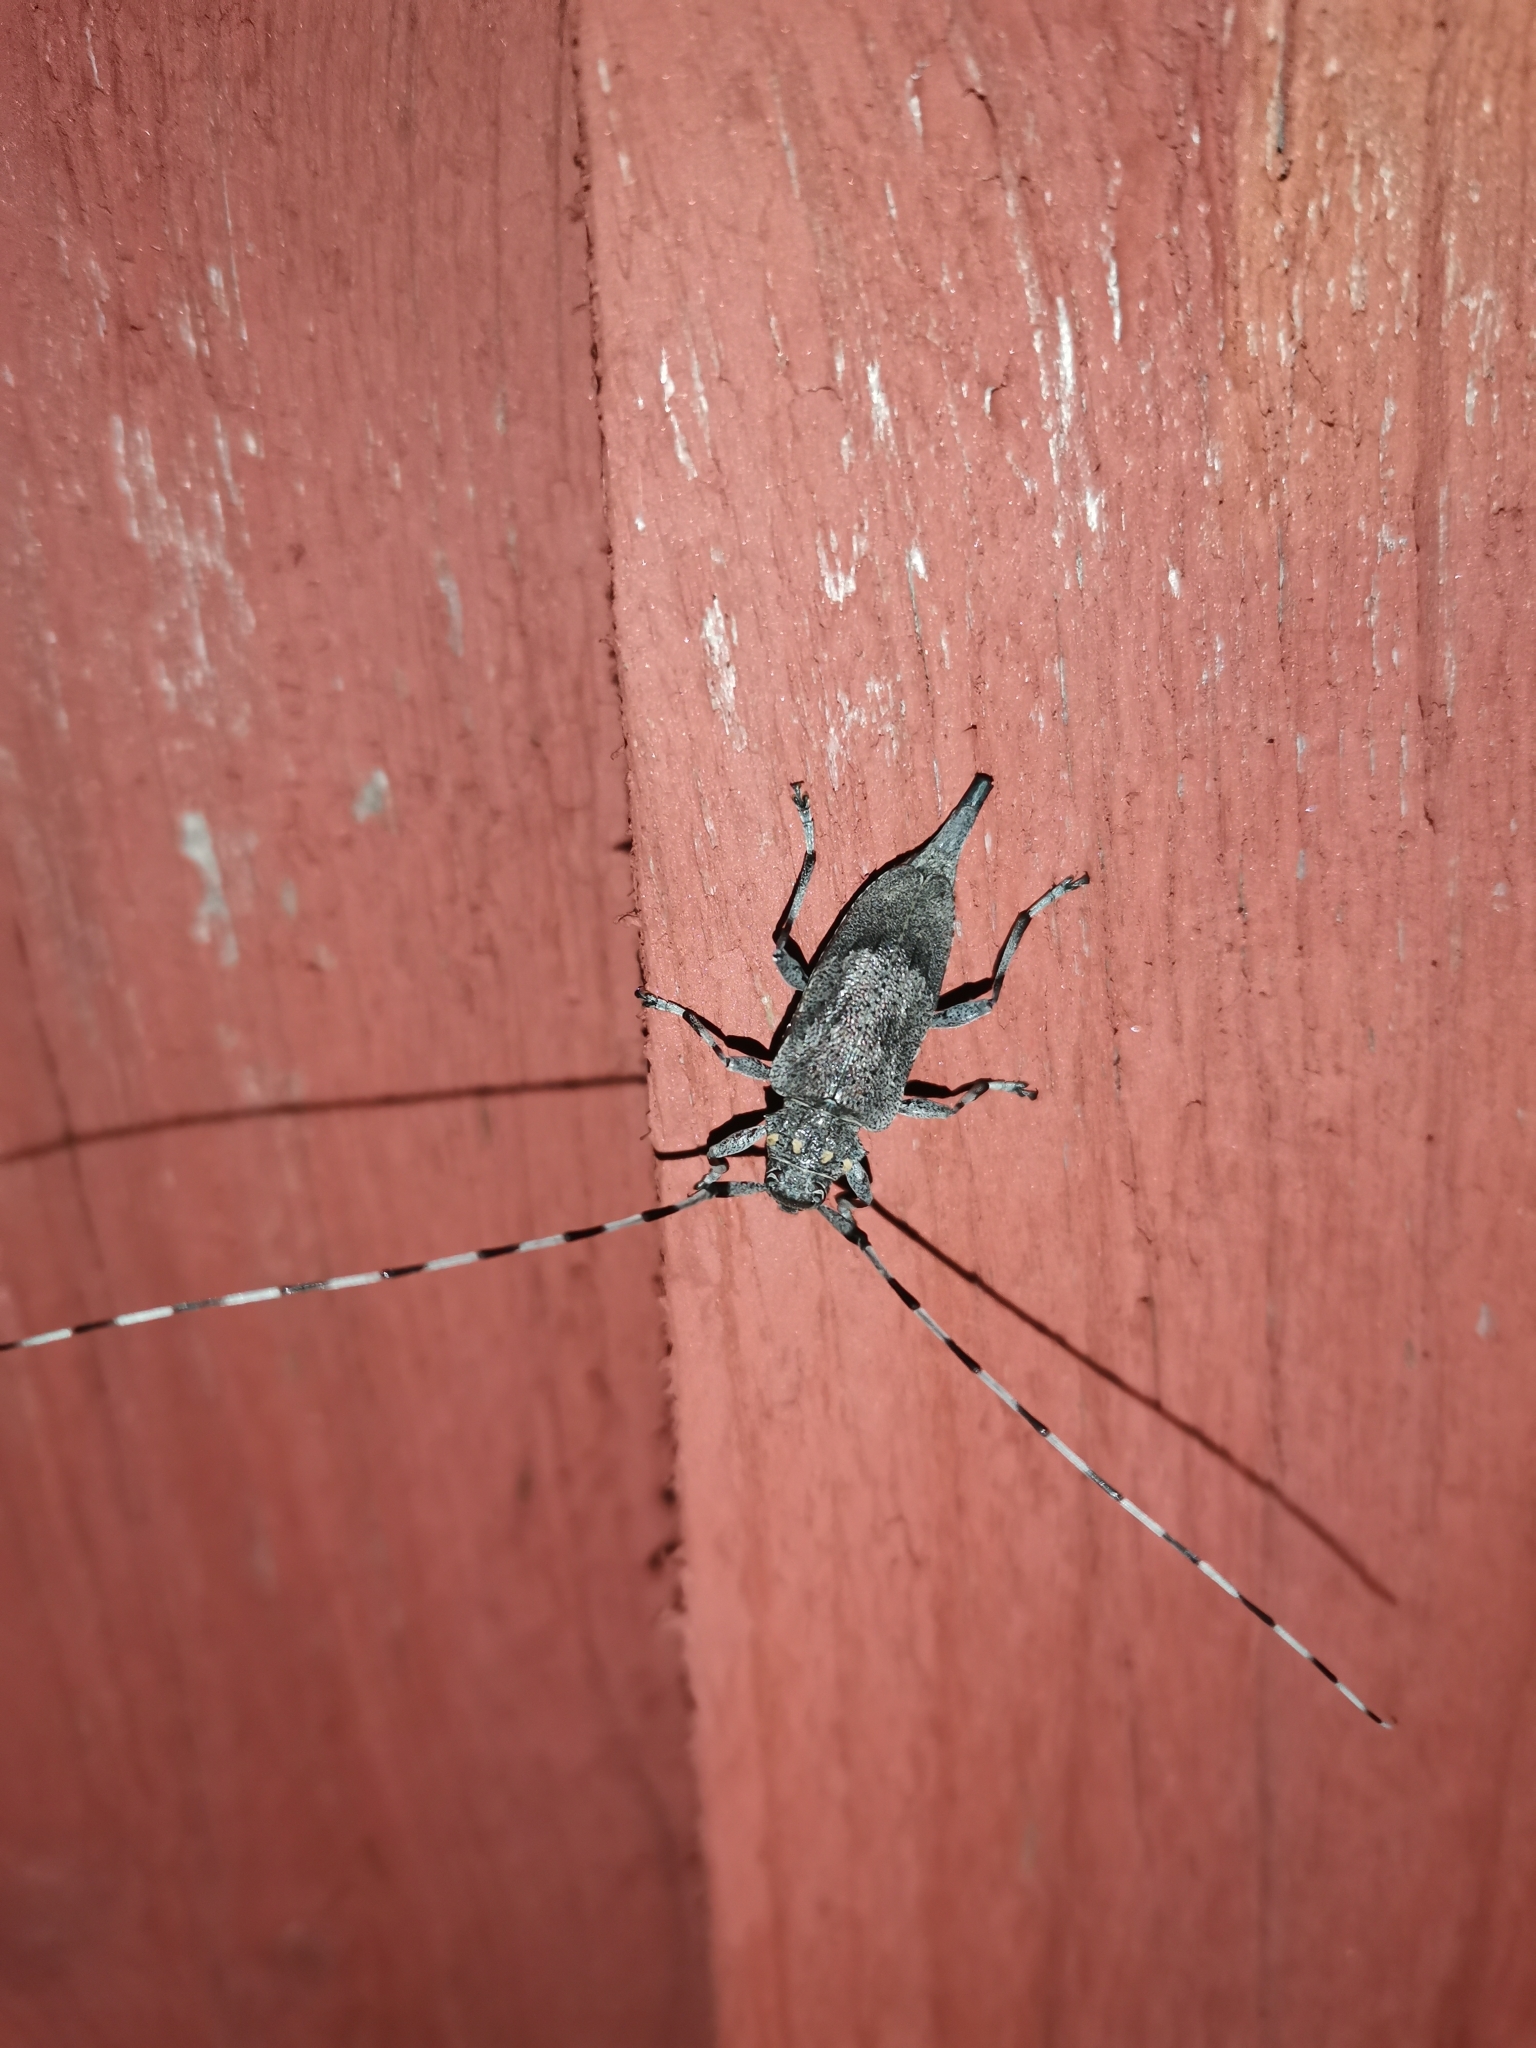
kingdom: Animalia
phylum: Arthropoda
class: Insecta
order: Coleoptera
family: Cerambycidae
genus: Acanthocinus
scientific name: Acanthocinus aedilis
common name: Timberman beetle
